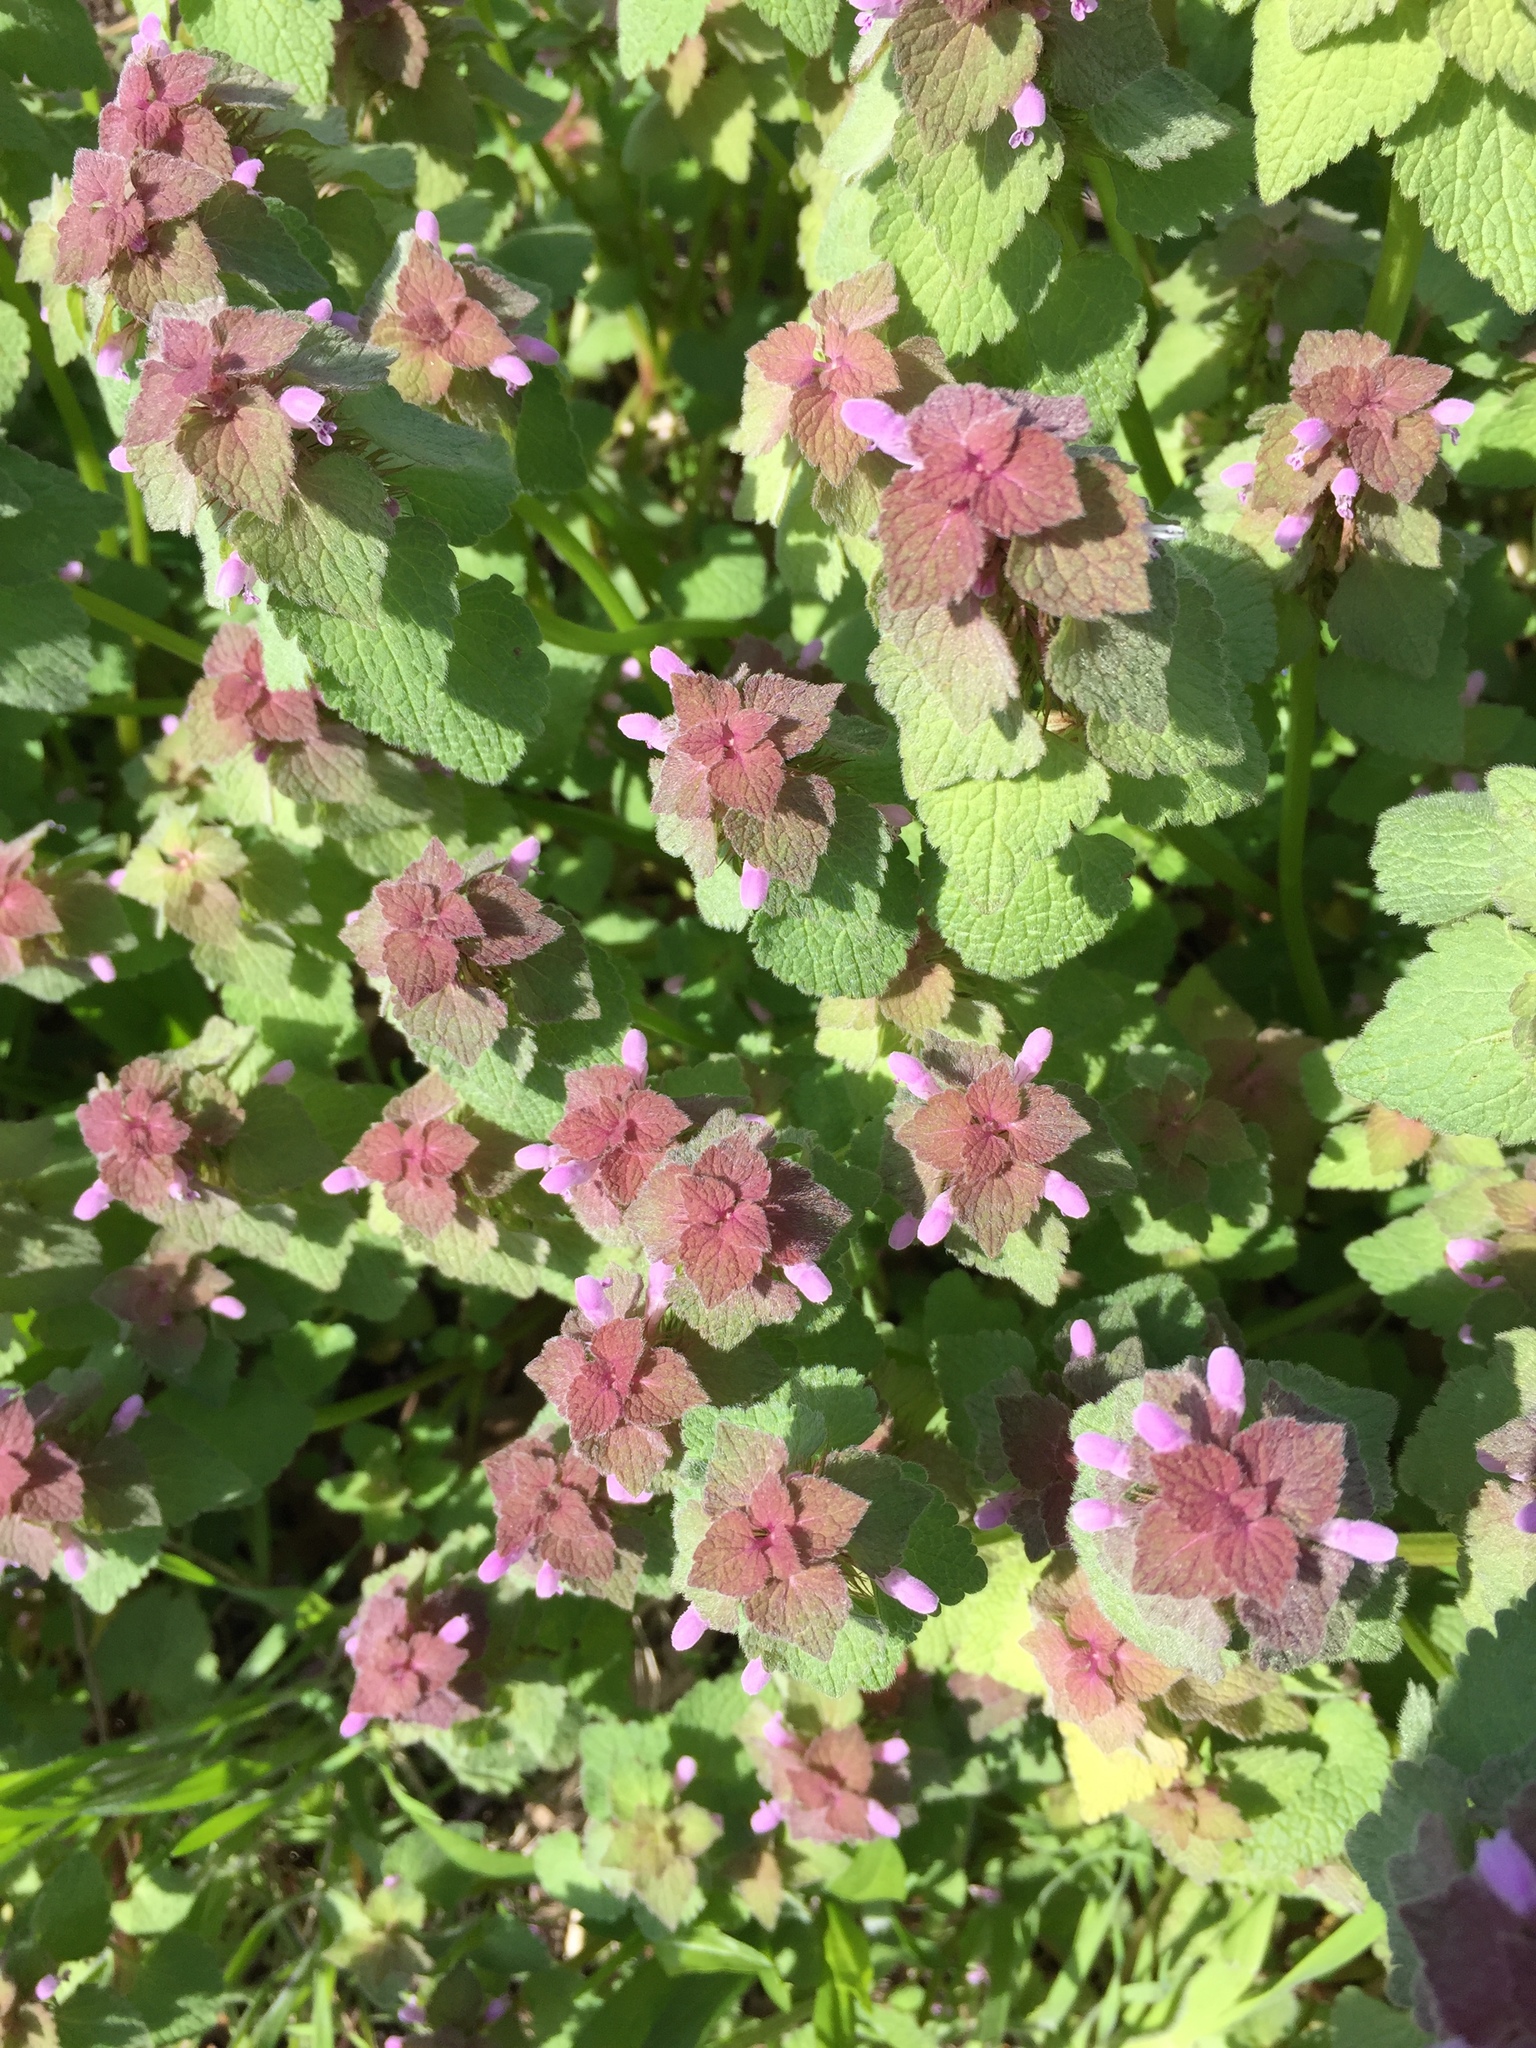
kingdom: Plantae
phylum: Tracheophyta
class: Magnoliopsida
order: Lamiales
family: Lamiaceae
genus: Lamium
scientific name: Lamium purpureum
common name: Red dead-nettle
